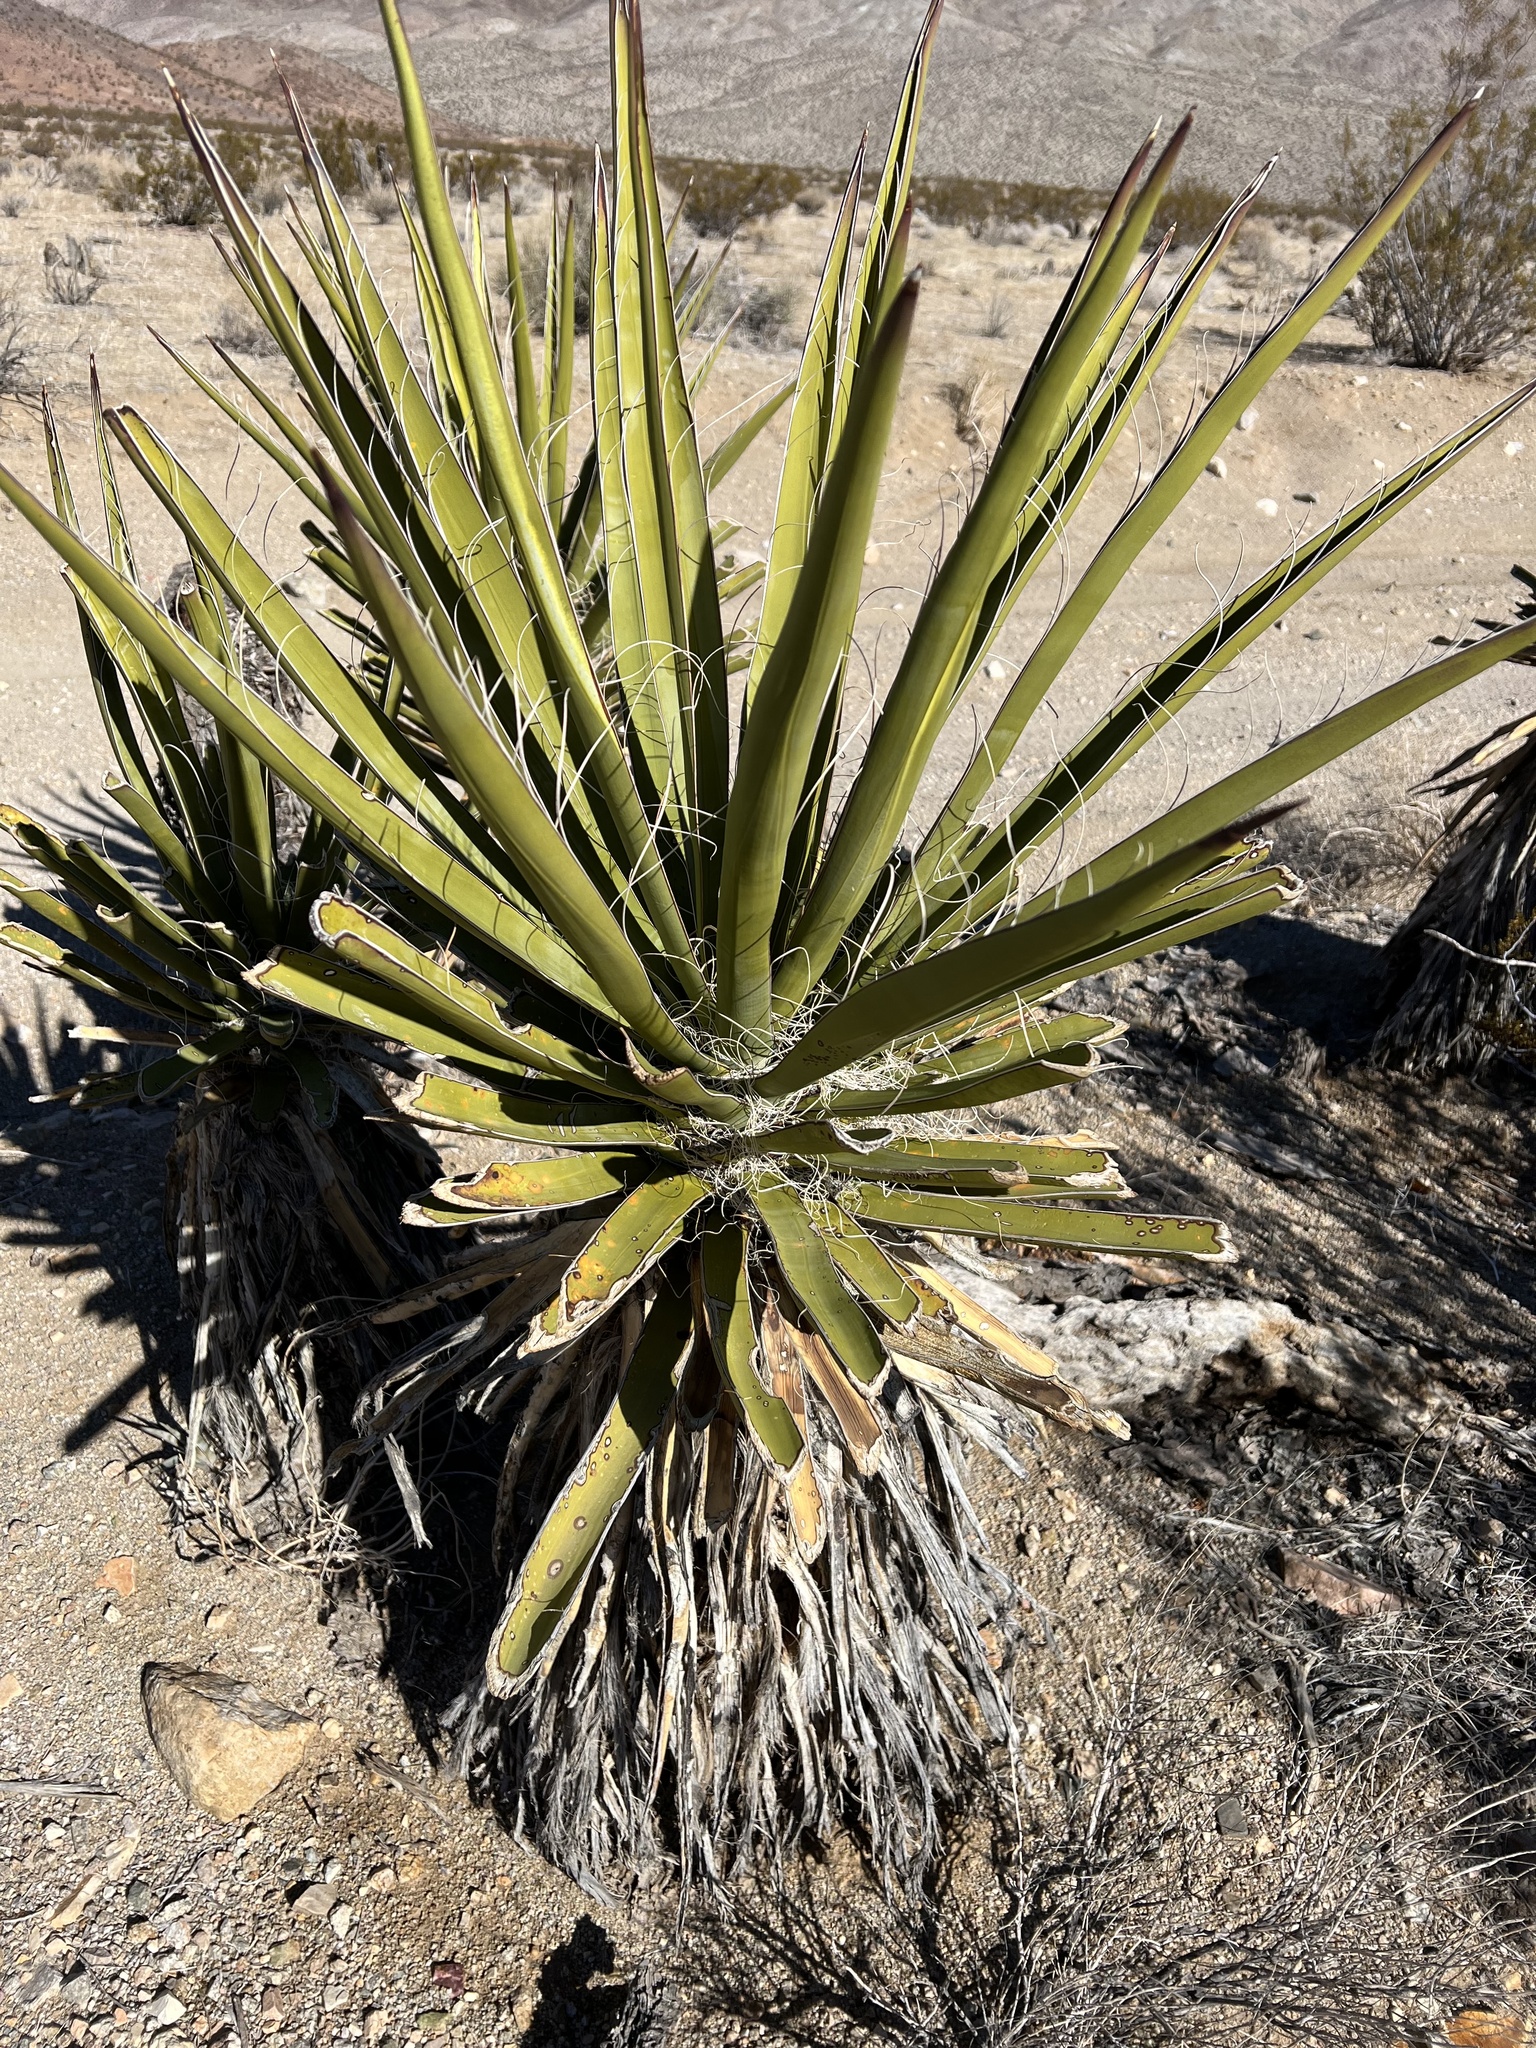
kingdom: Plantae
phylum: Tracheophyta
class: Liliopsida
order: Asparagales
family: Asparagaceae
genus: Yucca
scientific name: Yucca schidigera
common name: Mojave yucca
